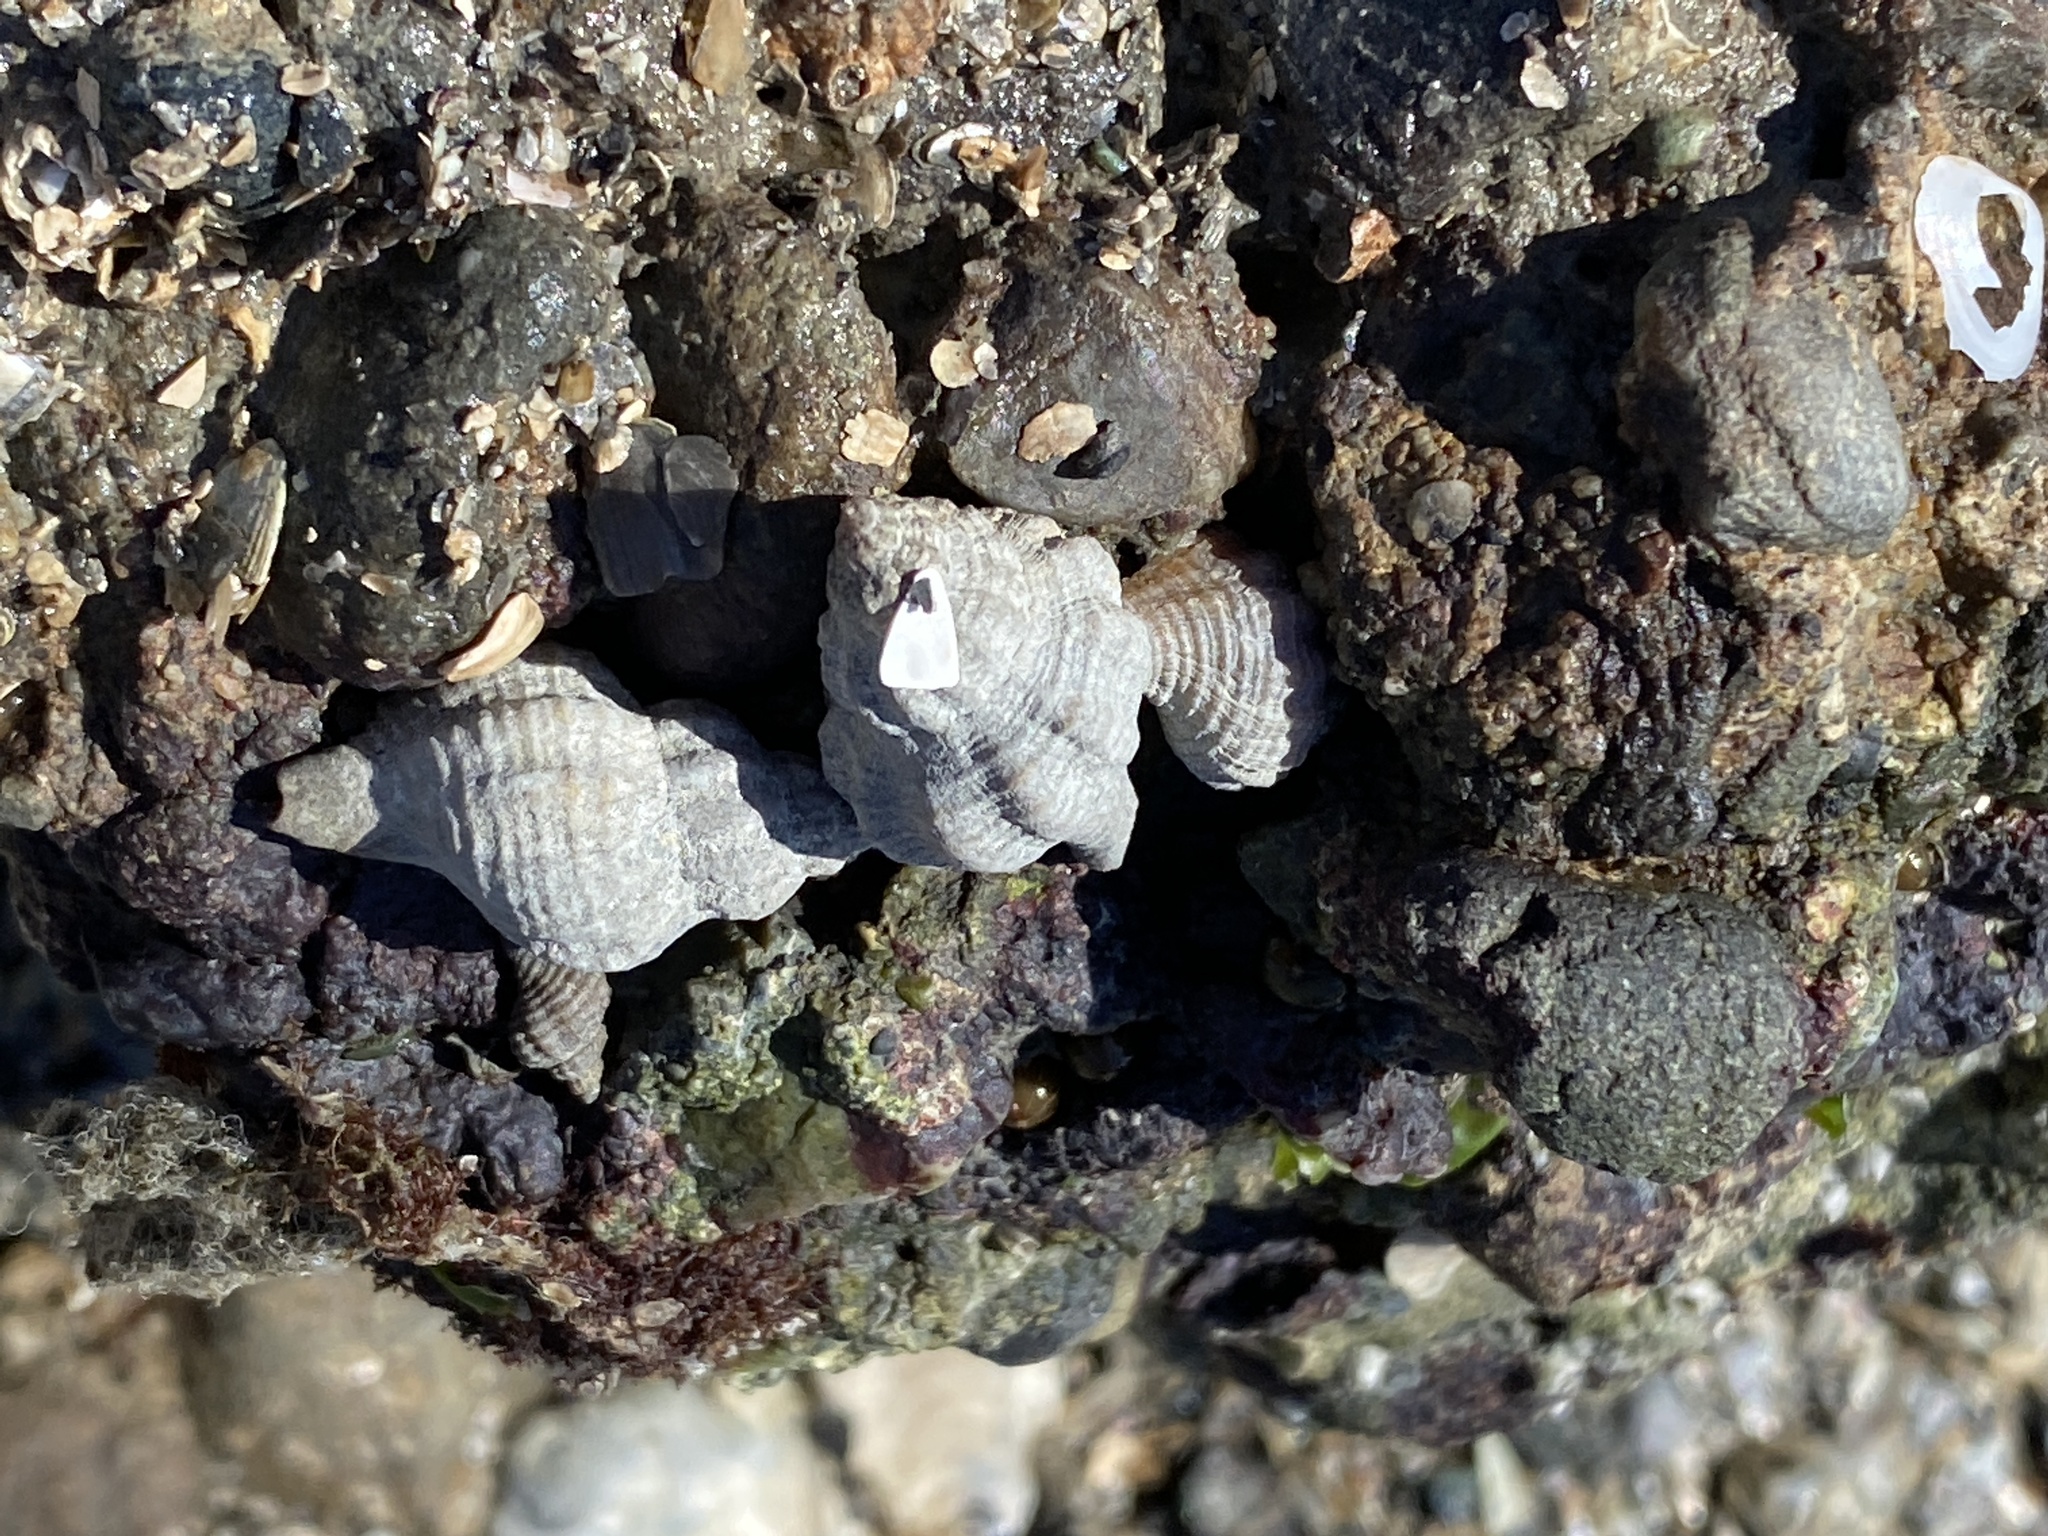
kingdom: Animalia
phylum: Mollusca
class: Gastropoda
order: Neogastropoda
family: Muricidae
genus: Urosalpinx
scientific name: Urosalpinx cinerea
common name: American sting winkle
